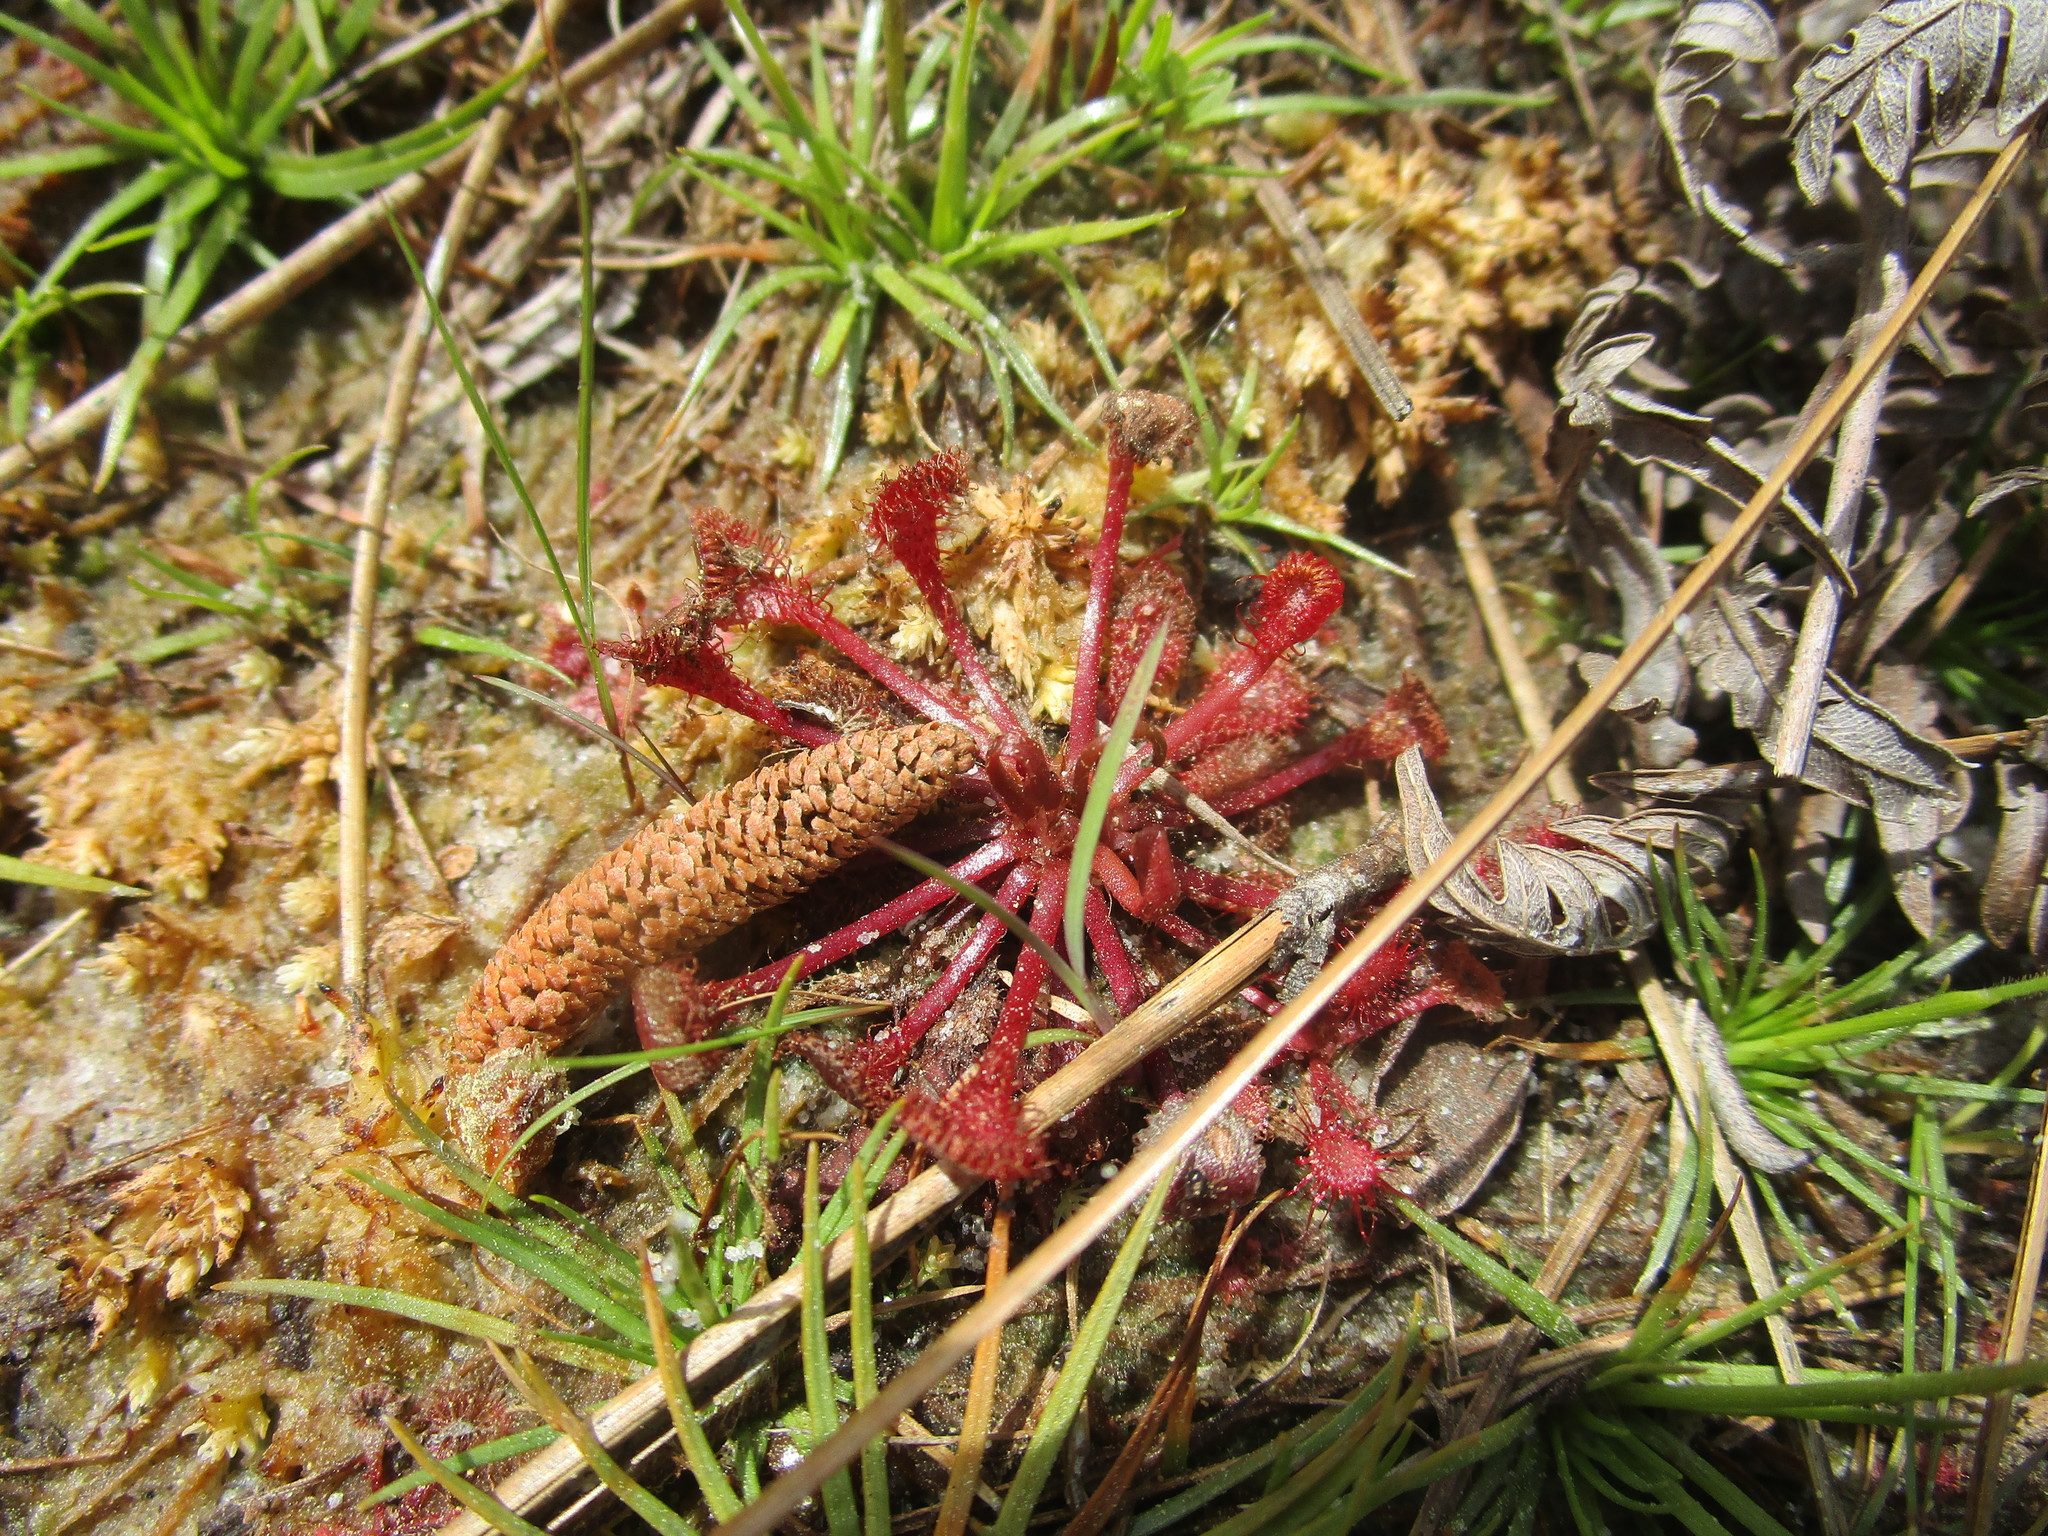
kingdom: Plantae
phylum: Tracheophyta
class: Magnoliopsida
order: Caryophyllales
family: Droseraceae
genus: Drosera
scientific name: Drosera capillaris
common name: Pink sundew
